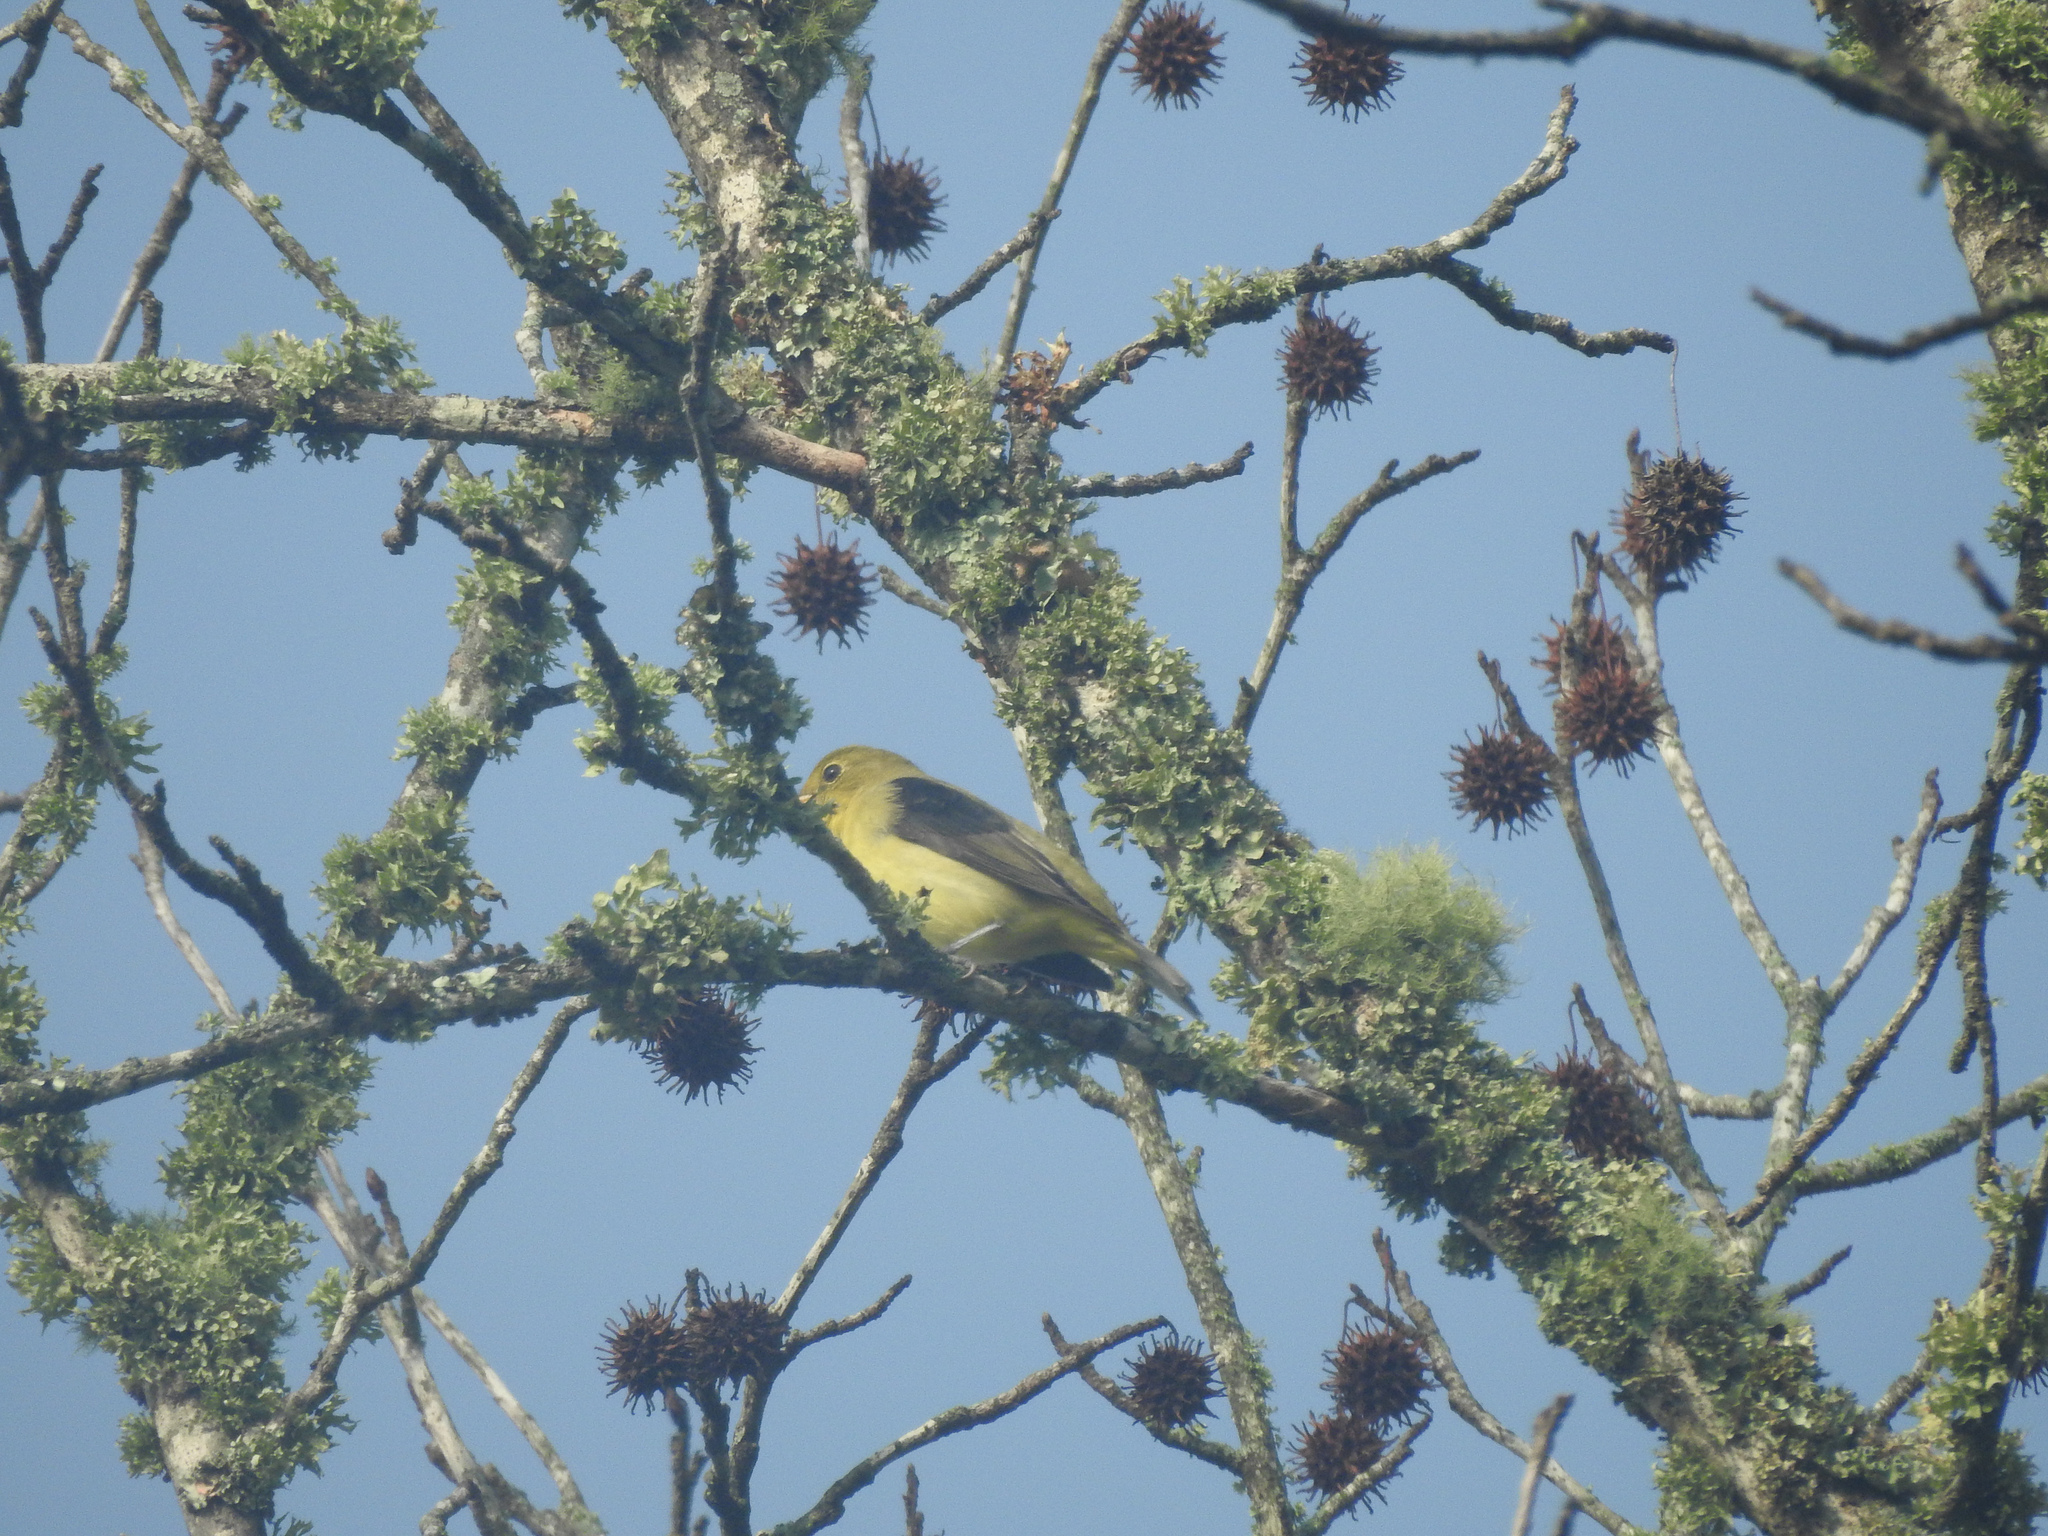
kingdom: Animalia
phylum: Chordata
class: Aves
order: Passeriformes
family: Cardinalidae
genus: Piranga
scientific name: Piranga olivacea
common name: Scarlet tanager
